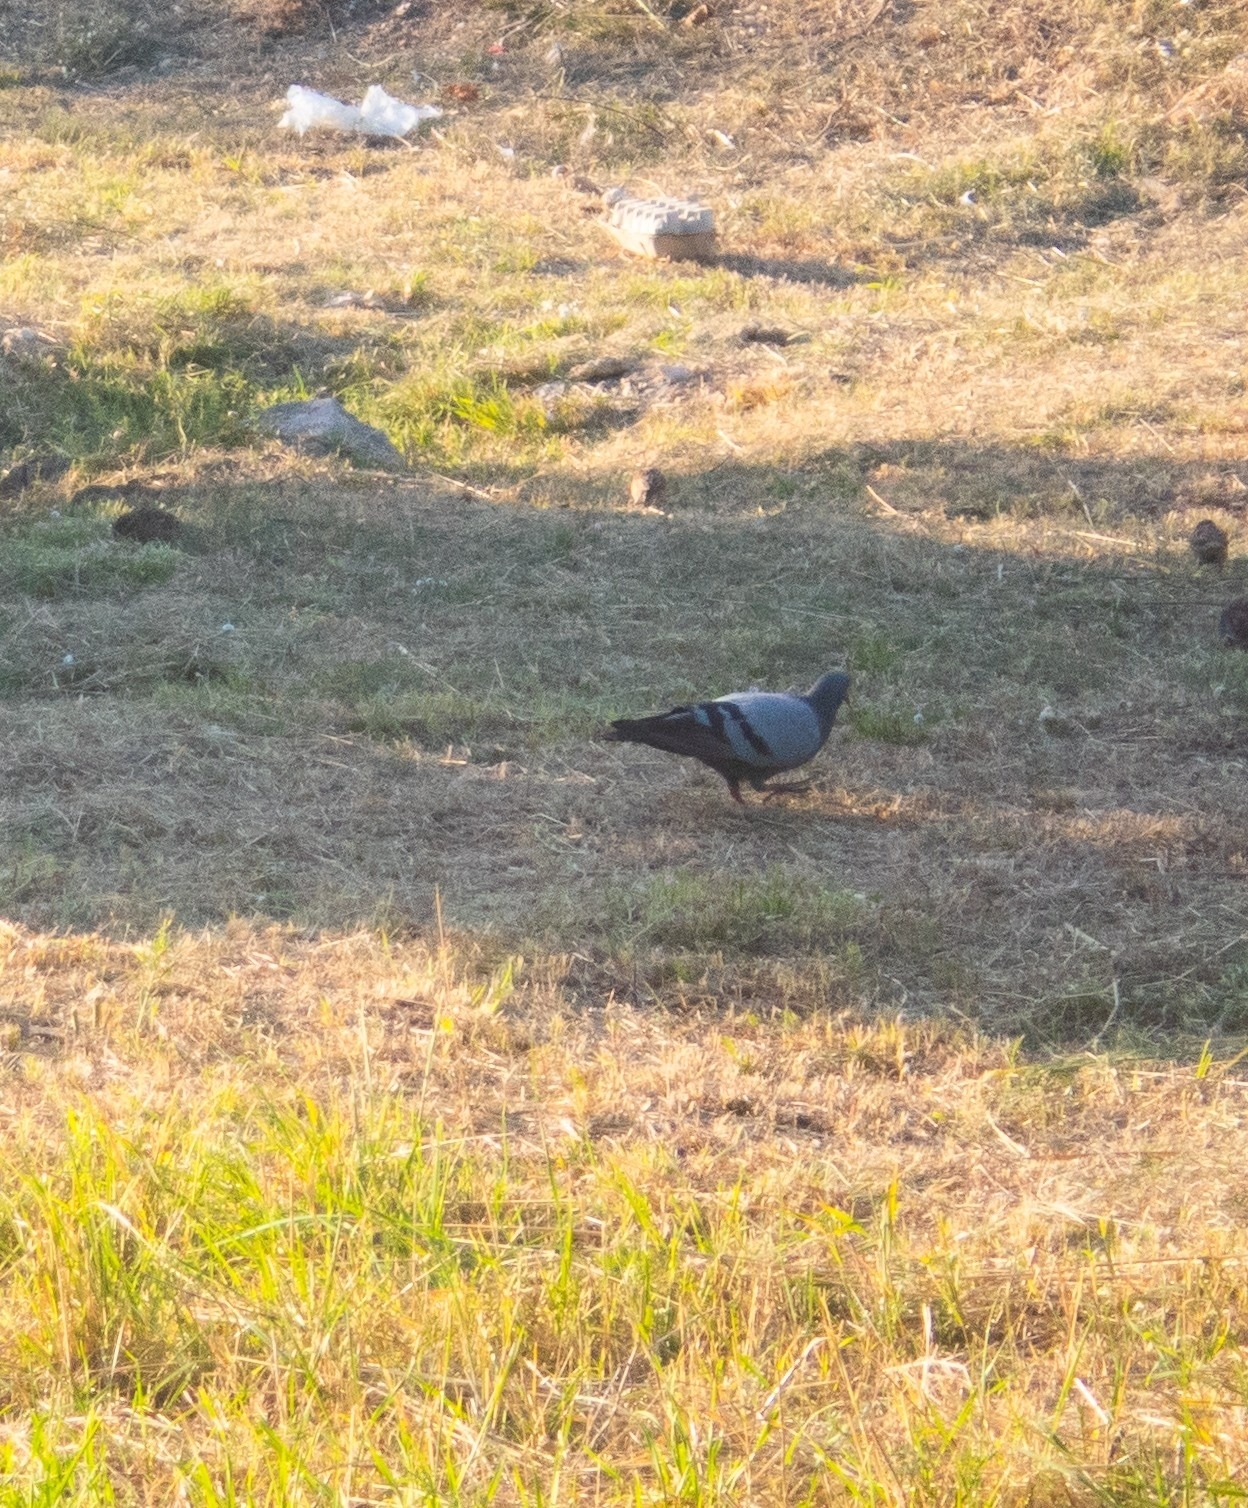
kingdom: Animalia
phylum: Chordata
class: Aves
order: Columbiformes
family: Columbidae
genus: Columba
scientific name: Columba livia
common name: Rock pigeon
